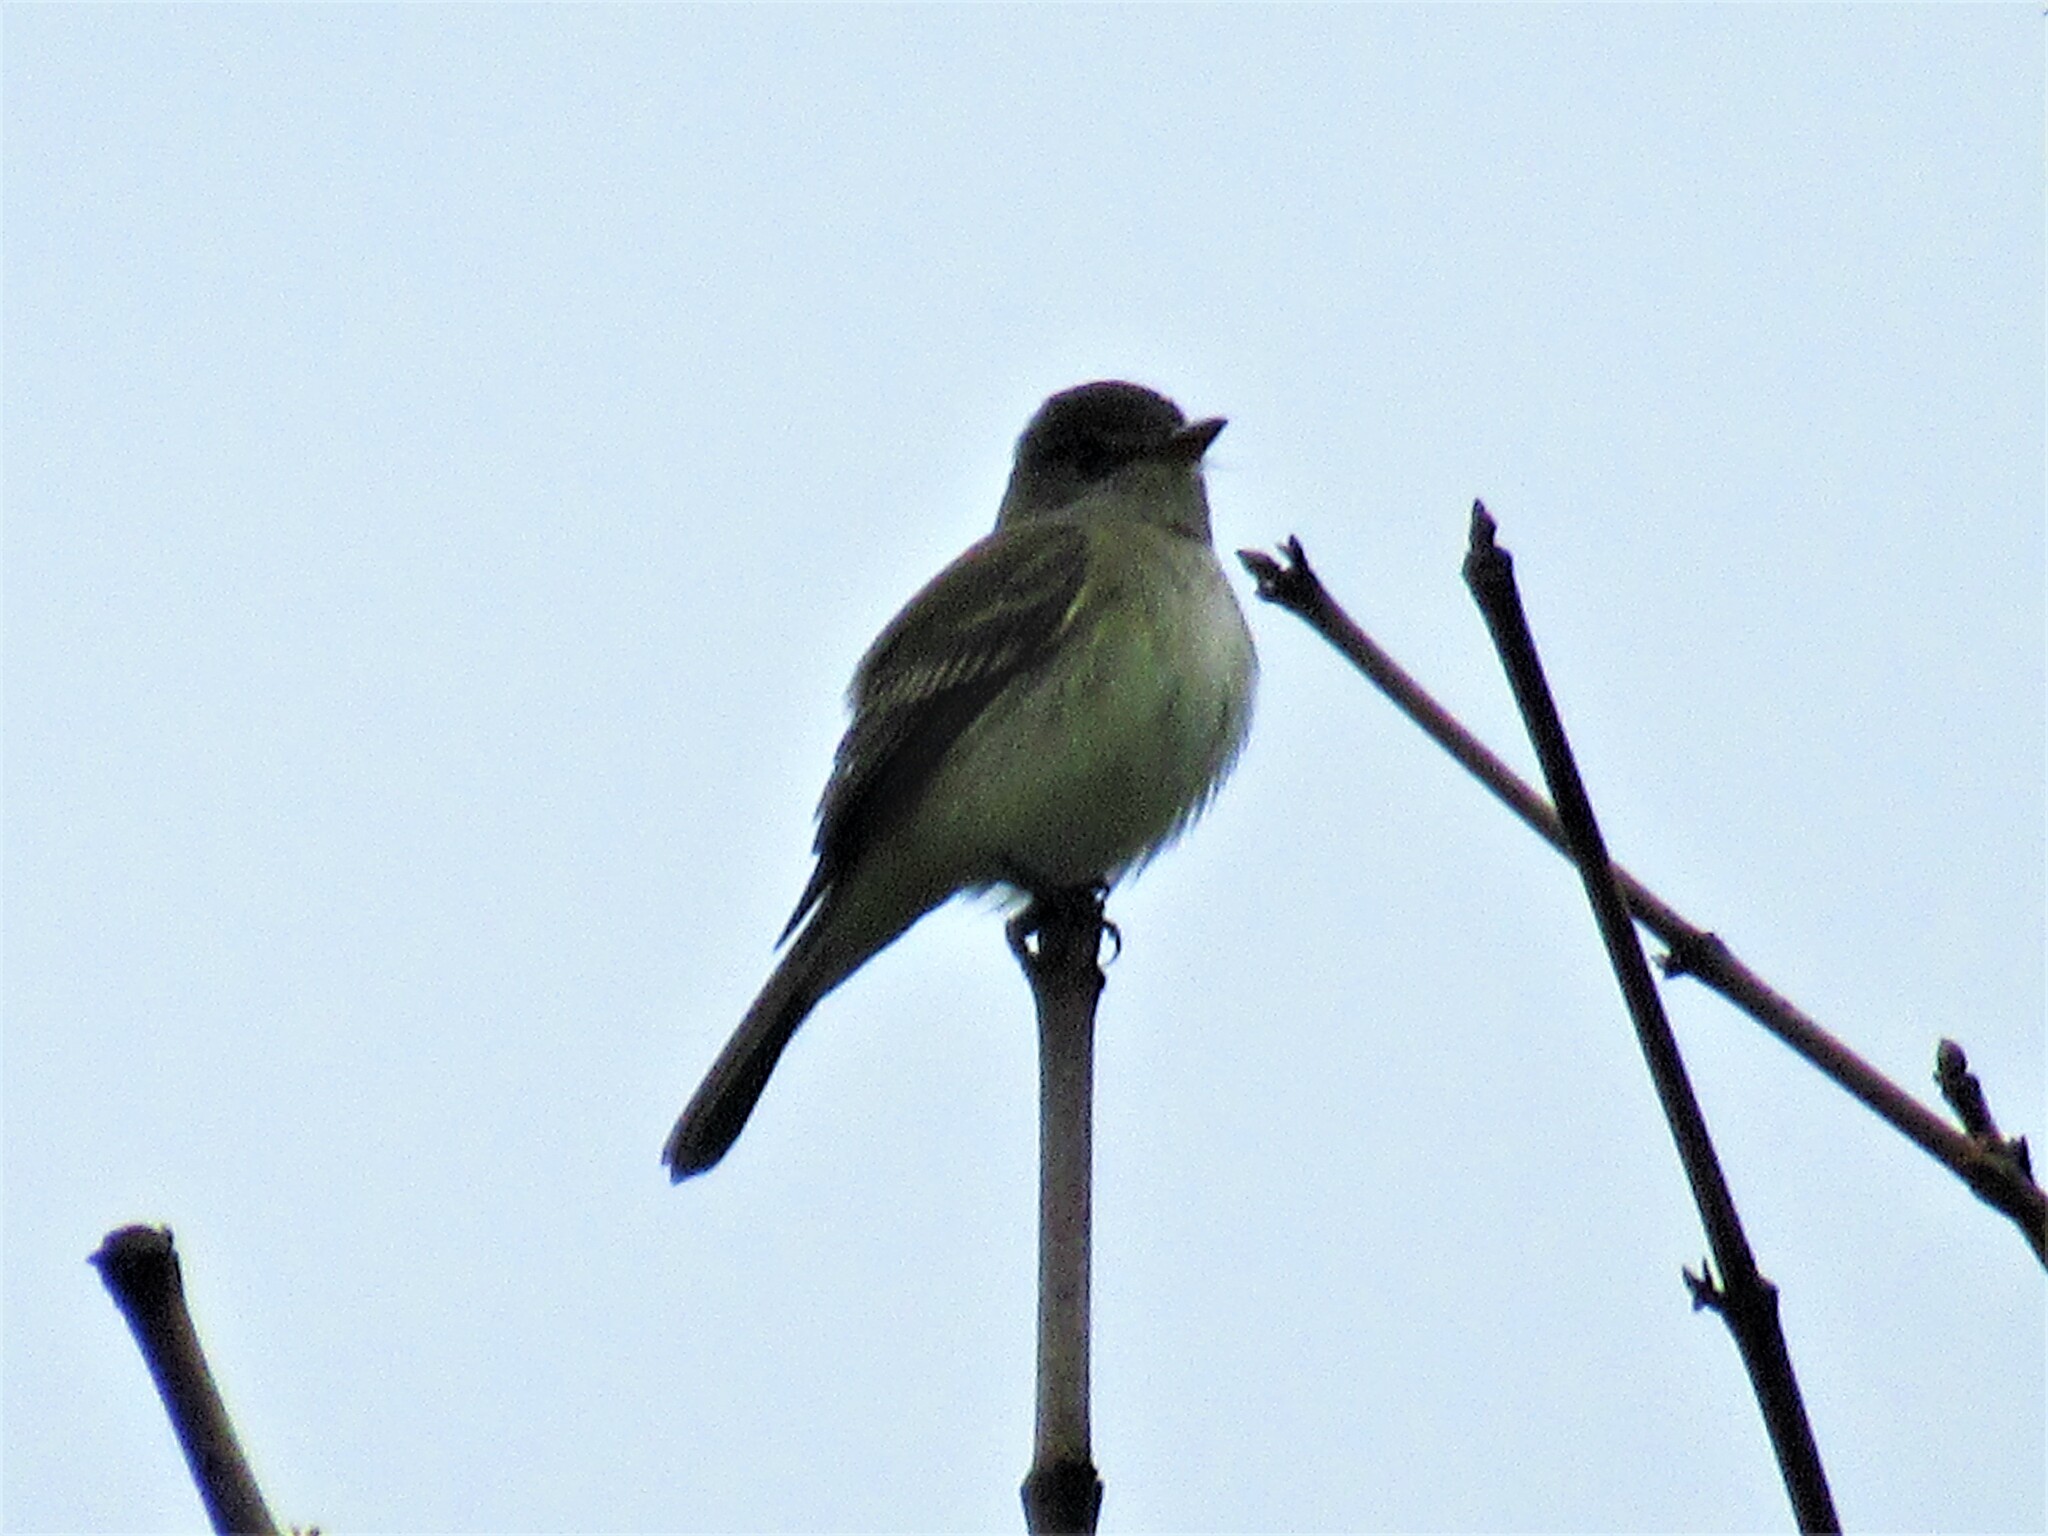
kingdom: Animalia
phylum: Chordata
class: Aves
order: Passeriformes
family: Tyrannidae
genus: Empidonax
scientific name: Empidonax traillii
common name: Willow flycatcher
